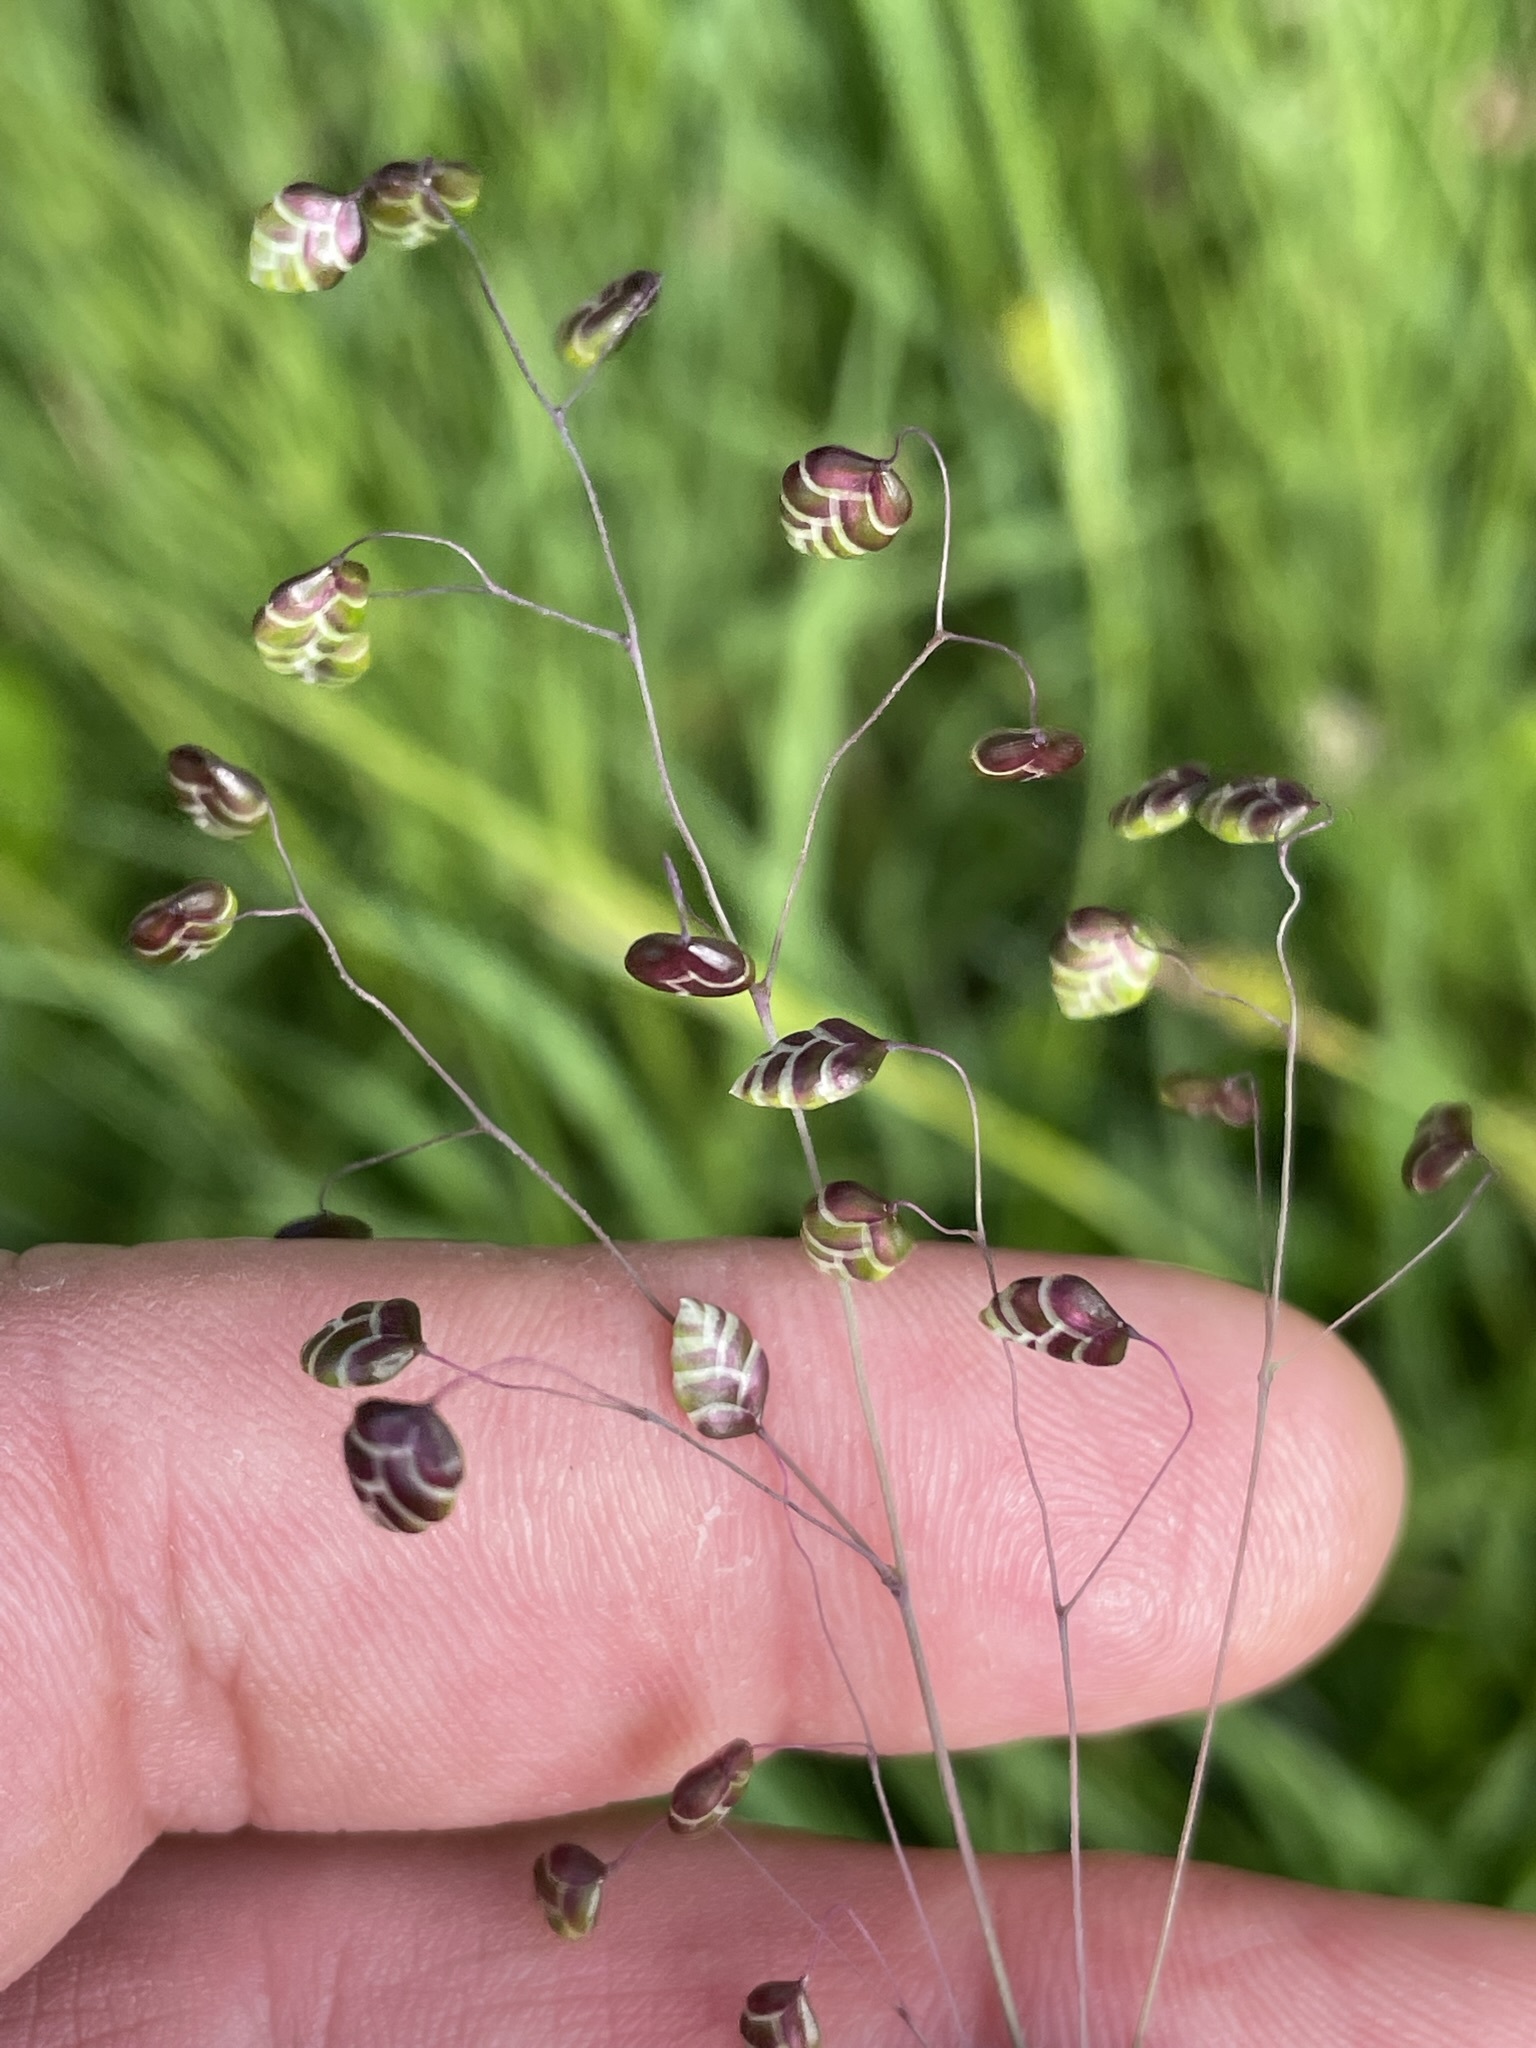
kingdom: Plantae
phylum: Tracheophyta
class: Liliopsida
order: Poales
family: Poaceae
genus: Briza
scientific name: Briza media
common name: Quaking grass
